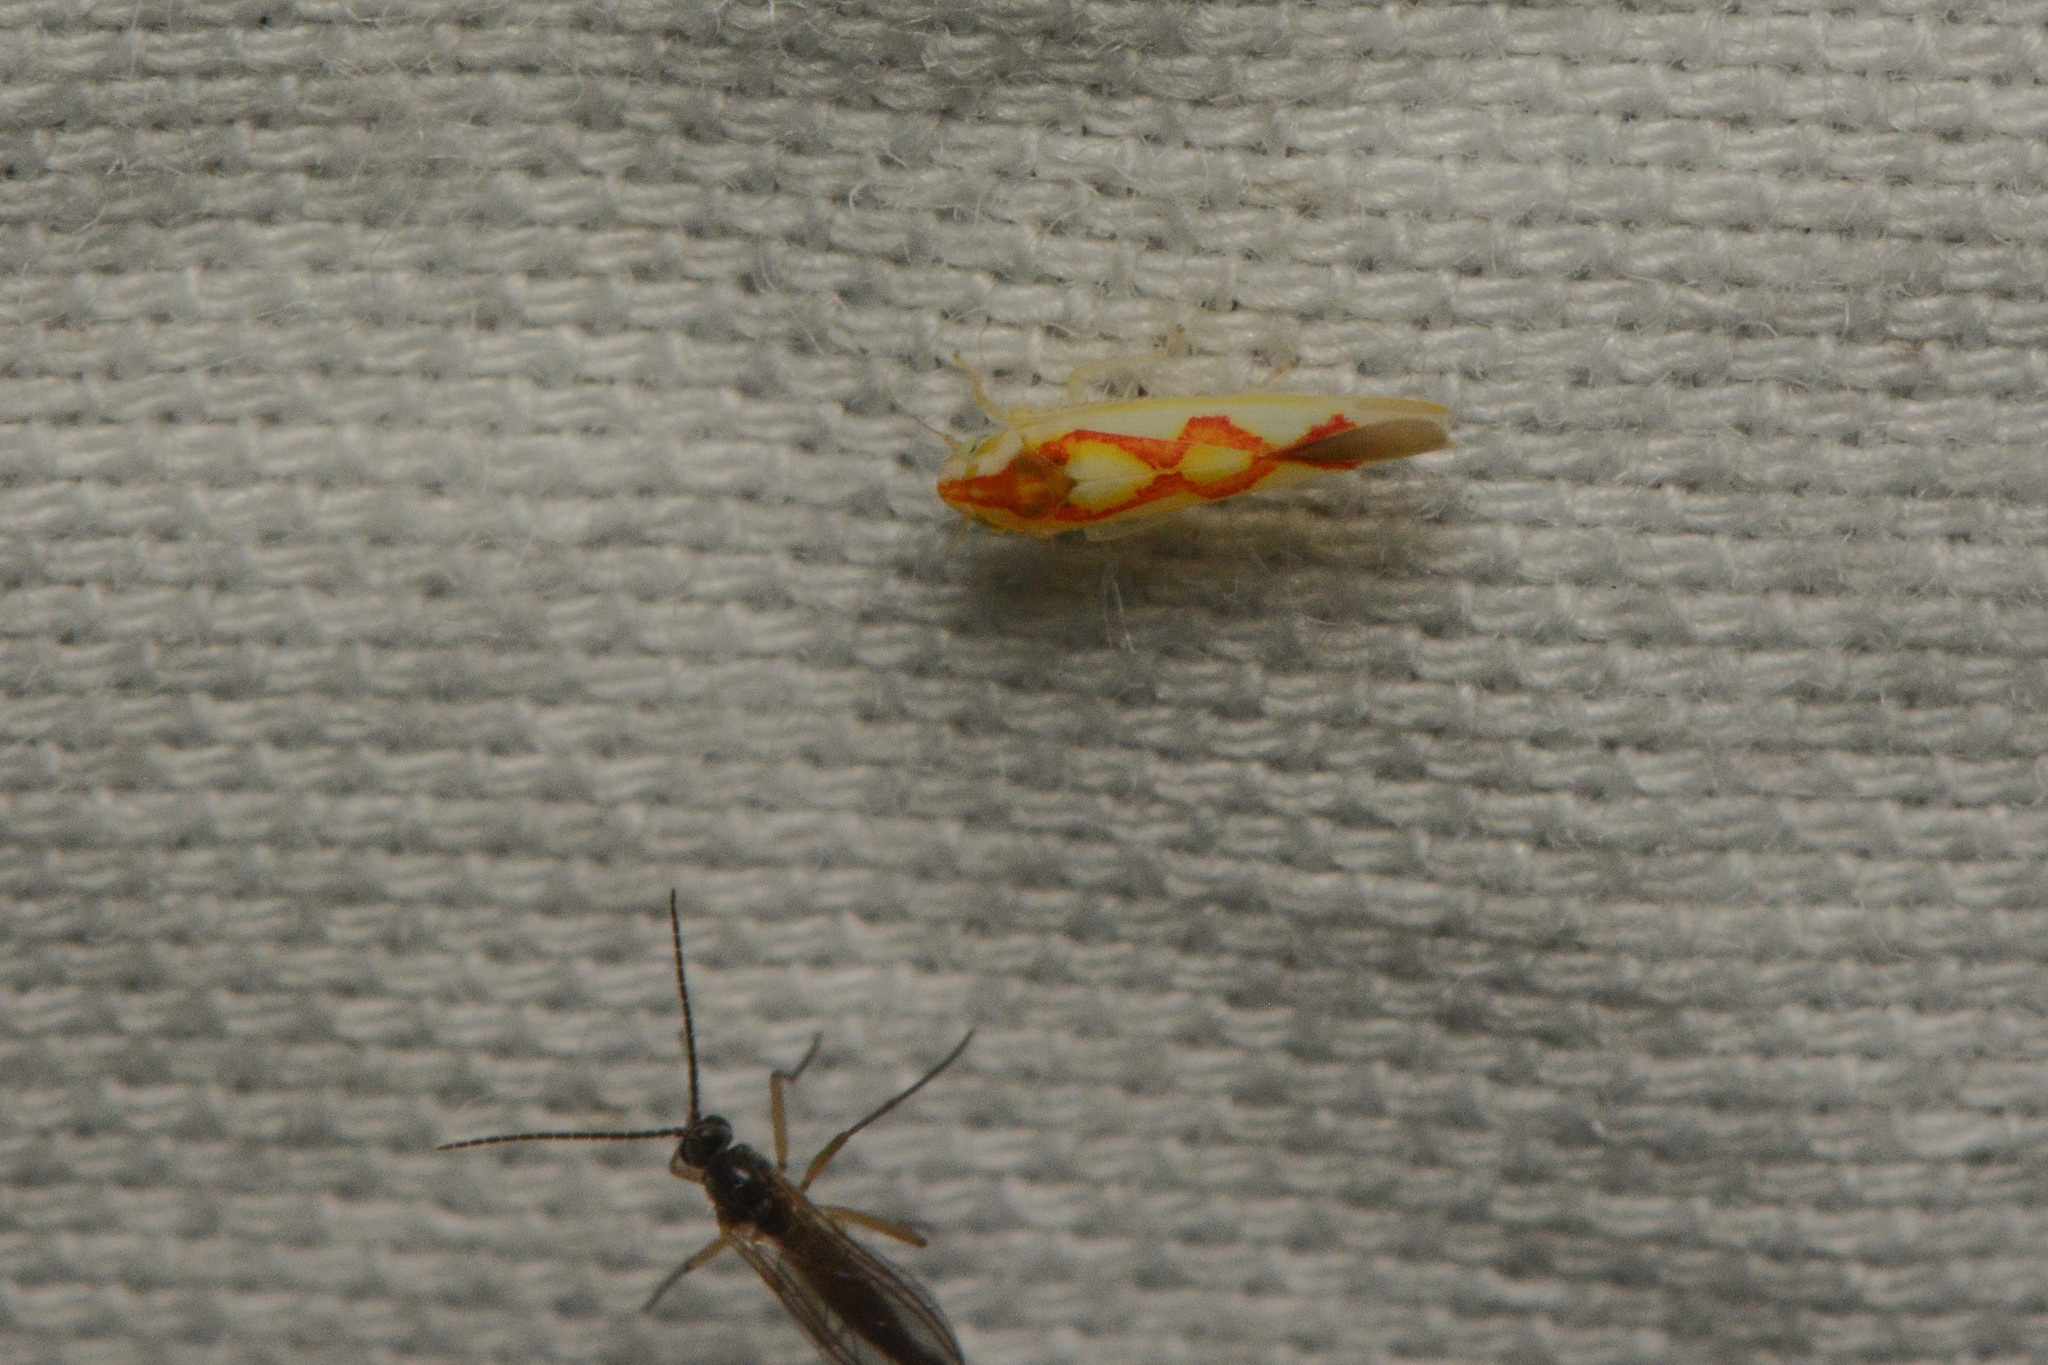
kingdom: Animalia
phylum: Arthropoda
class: Insecta
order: Hemiptera
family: Cicadellidae
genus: Zygina
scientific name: Zygina flammigera
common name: Leafhopper
